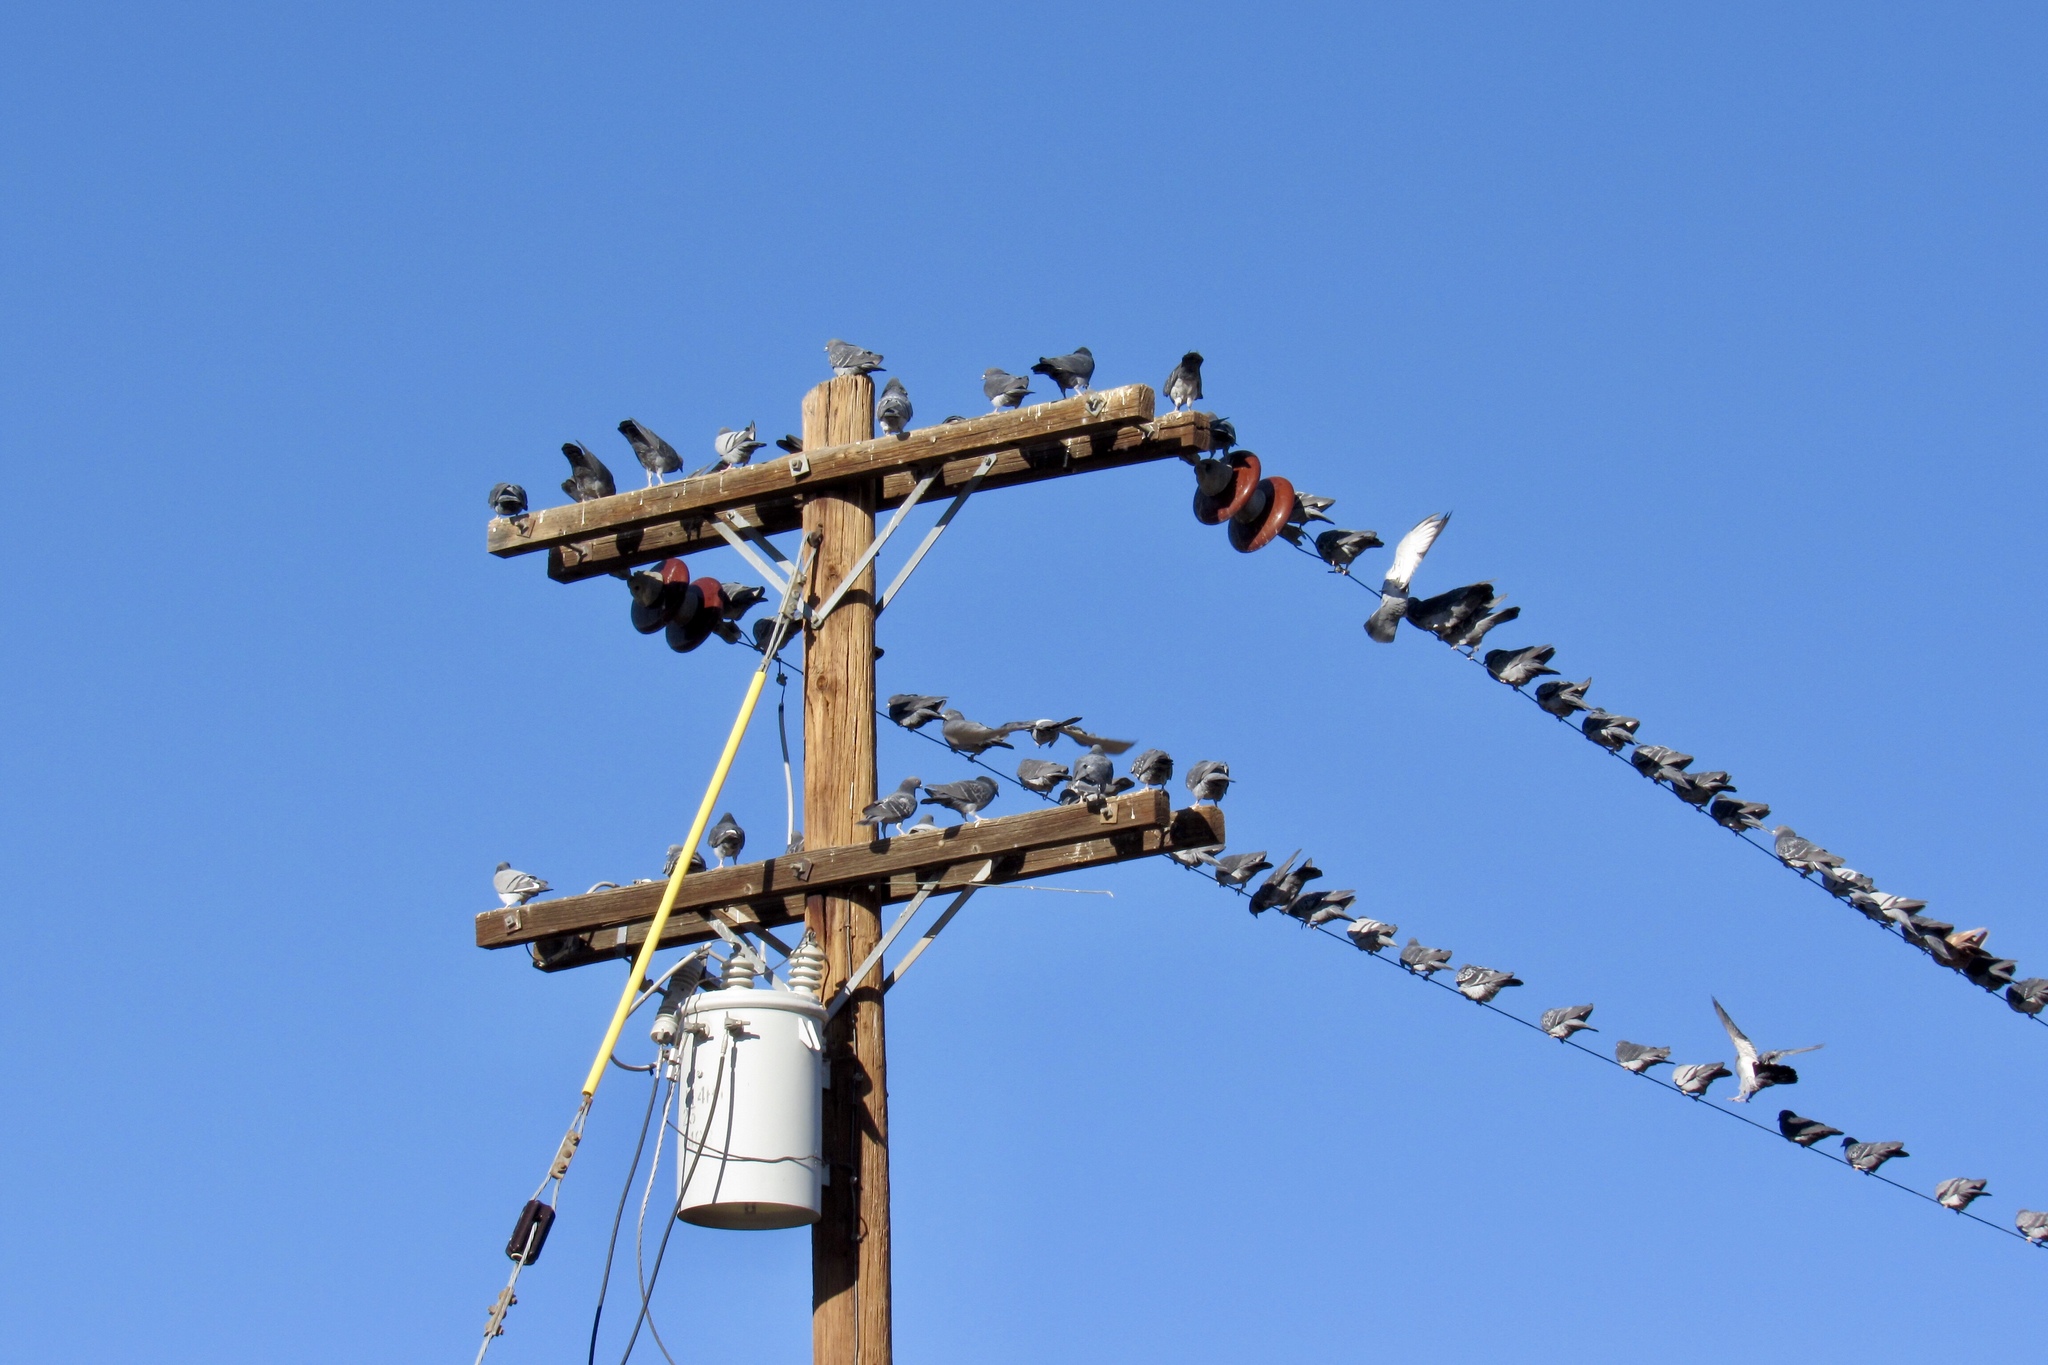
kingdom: Animalia
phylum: Chordata
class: Aves
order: Columbiformes
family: Columbidae
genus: Columba
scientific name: Columba livia
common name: Rock pigeon
